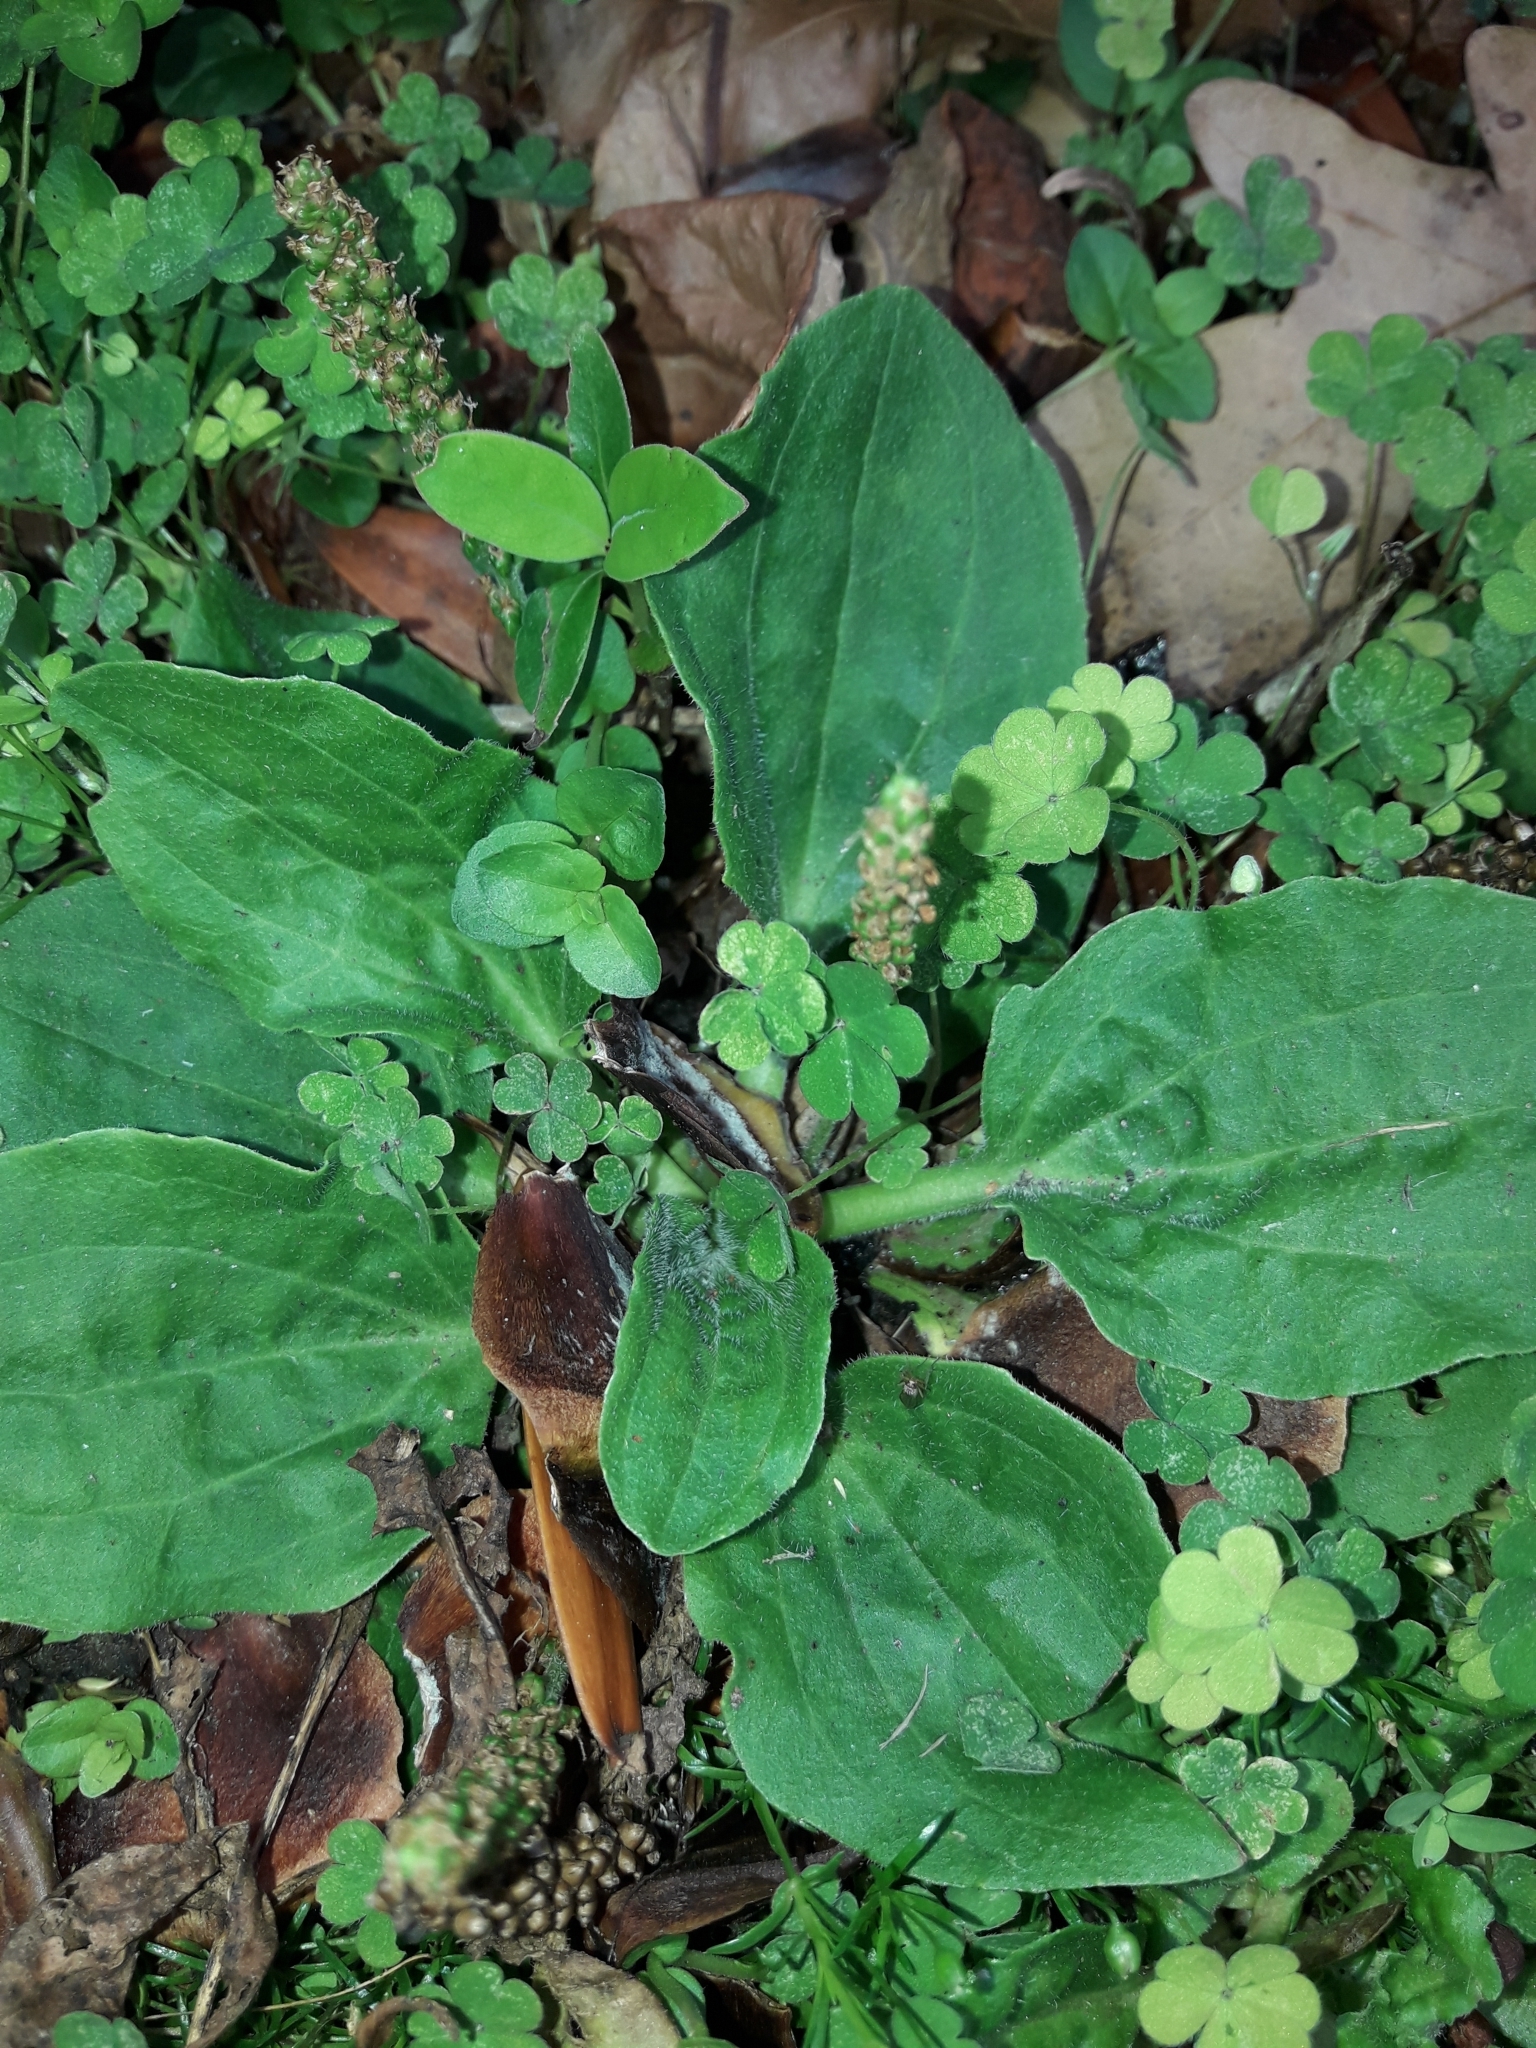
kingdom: Plantae
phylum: Tracheophyta
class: Magnoliopsida
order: Lamiales
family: Plantaginaceae
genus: Plantago
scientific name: Plantago major
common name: Common plantain
